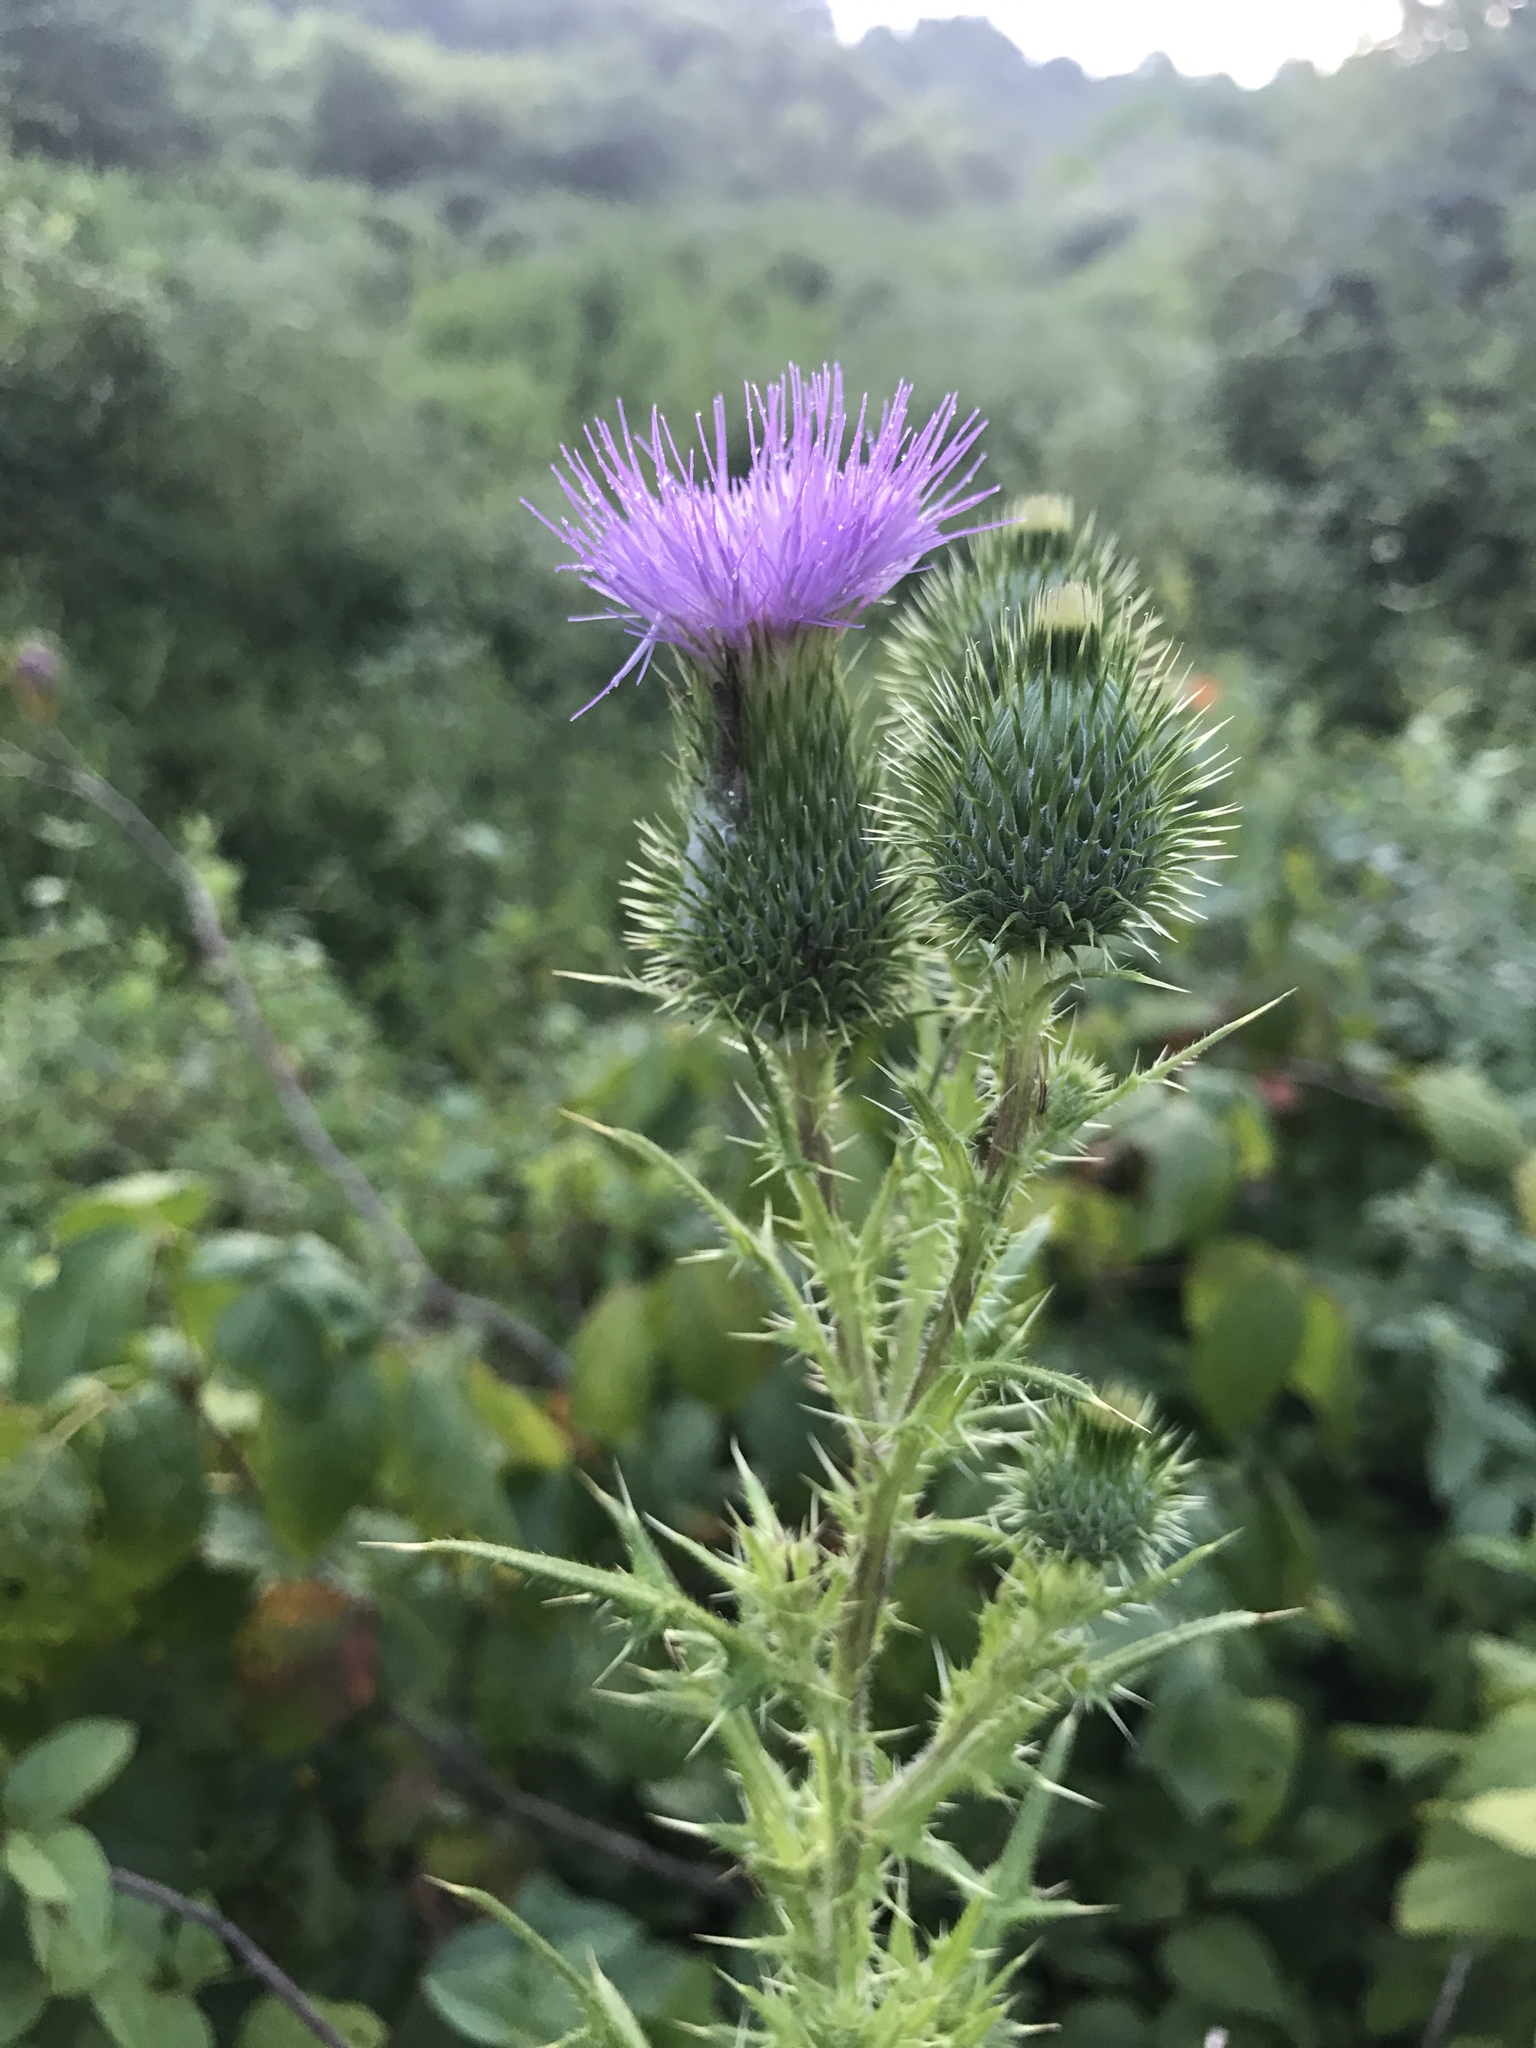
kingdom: Plantae
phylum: Tracheophyta
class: Magnoliopsida
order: Asterales
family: Asteraceae
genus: Cirsium
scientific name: Cirsium vulgare
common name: Bull thistle
